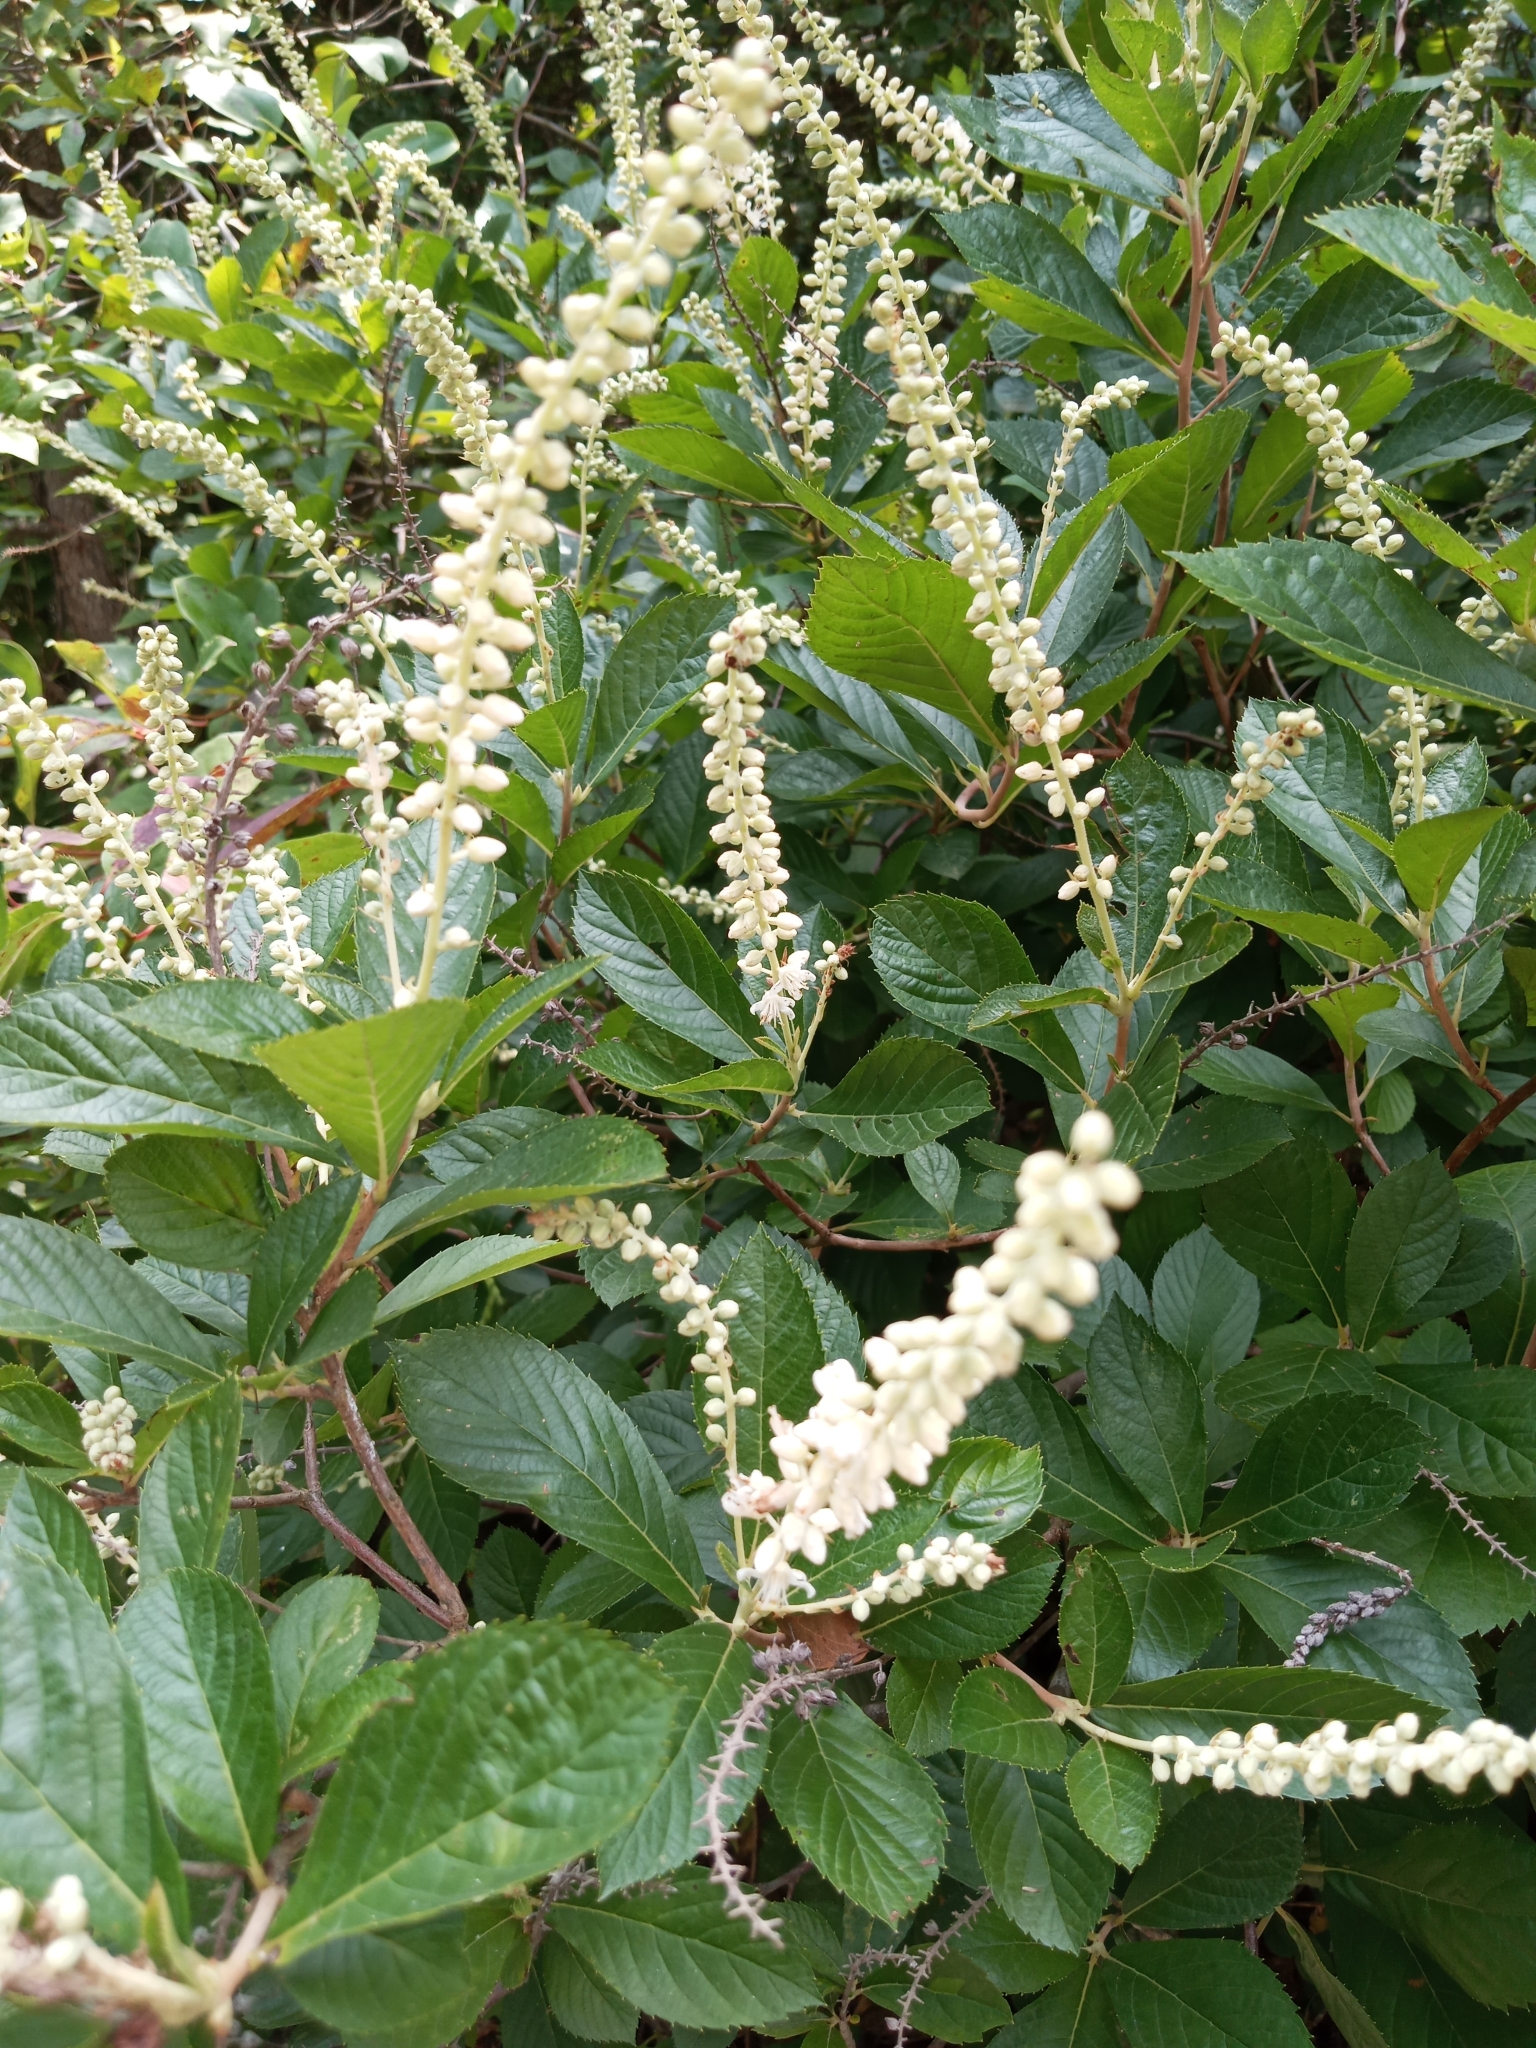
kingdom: Plantae
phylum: Tracheophyta
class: Magnoliopsida
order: Ericales
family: Clethraceae
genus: Clethra
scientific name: Clethra alnifolia
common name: Sweet pepperbush
